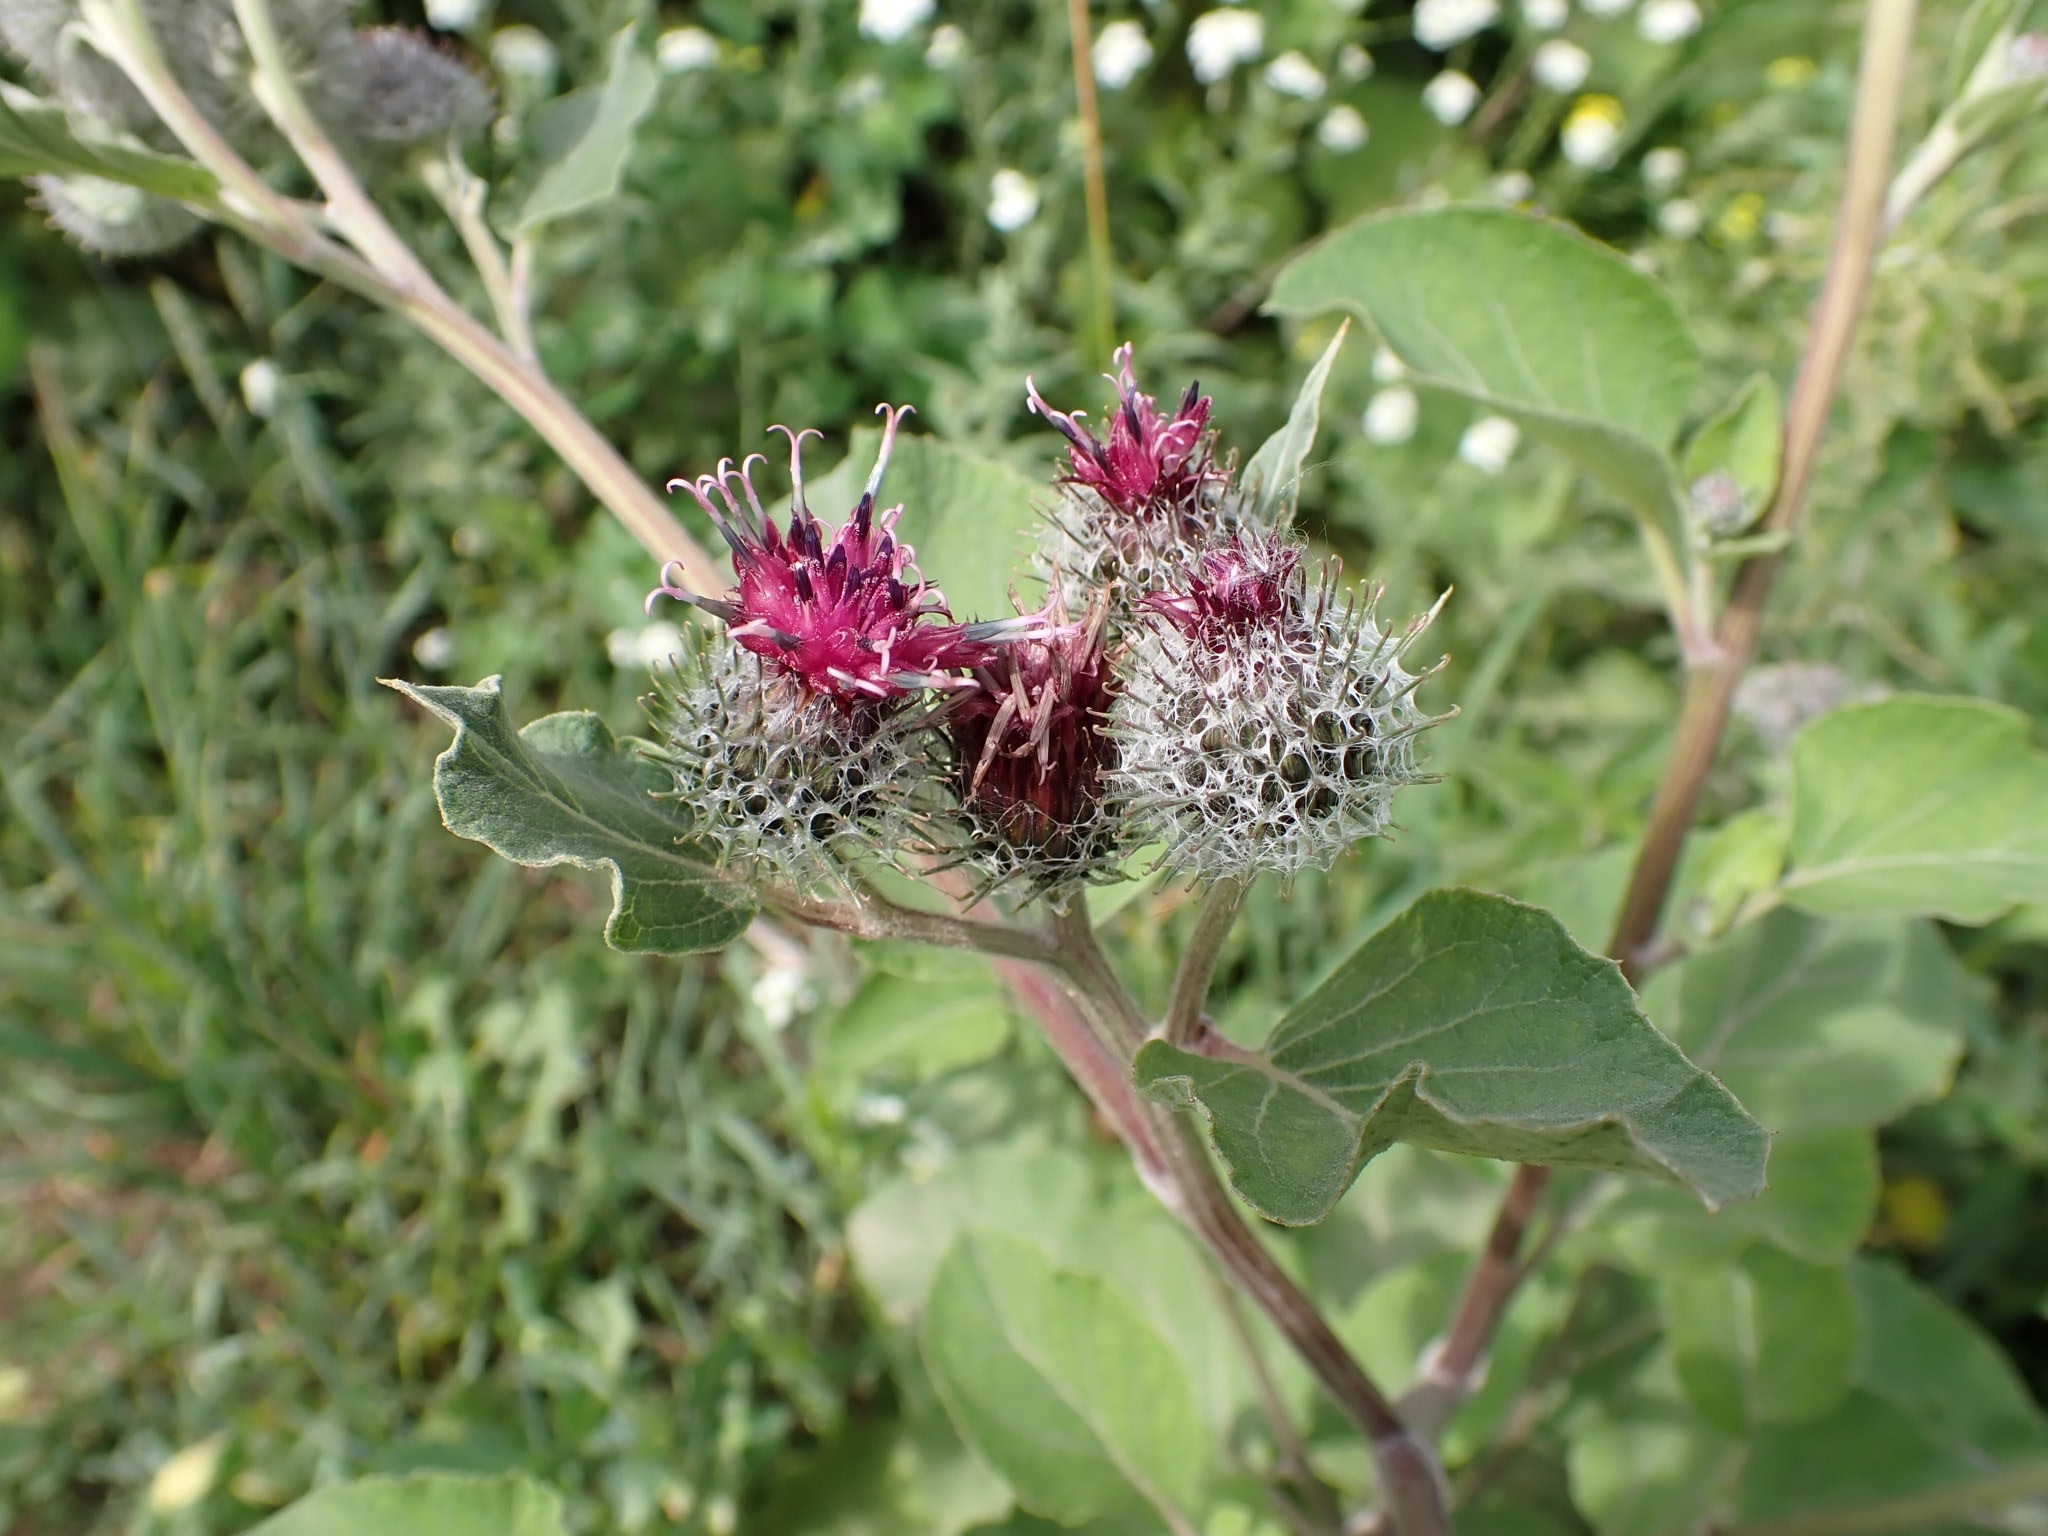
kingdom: Plantae
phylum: Tracheophyta
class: Magnoliopsida
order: Asterales
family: Asteraceae
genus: Arctium
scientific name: Arctium tomentosum
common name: Woolly burdock
